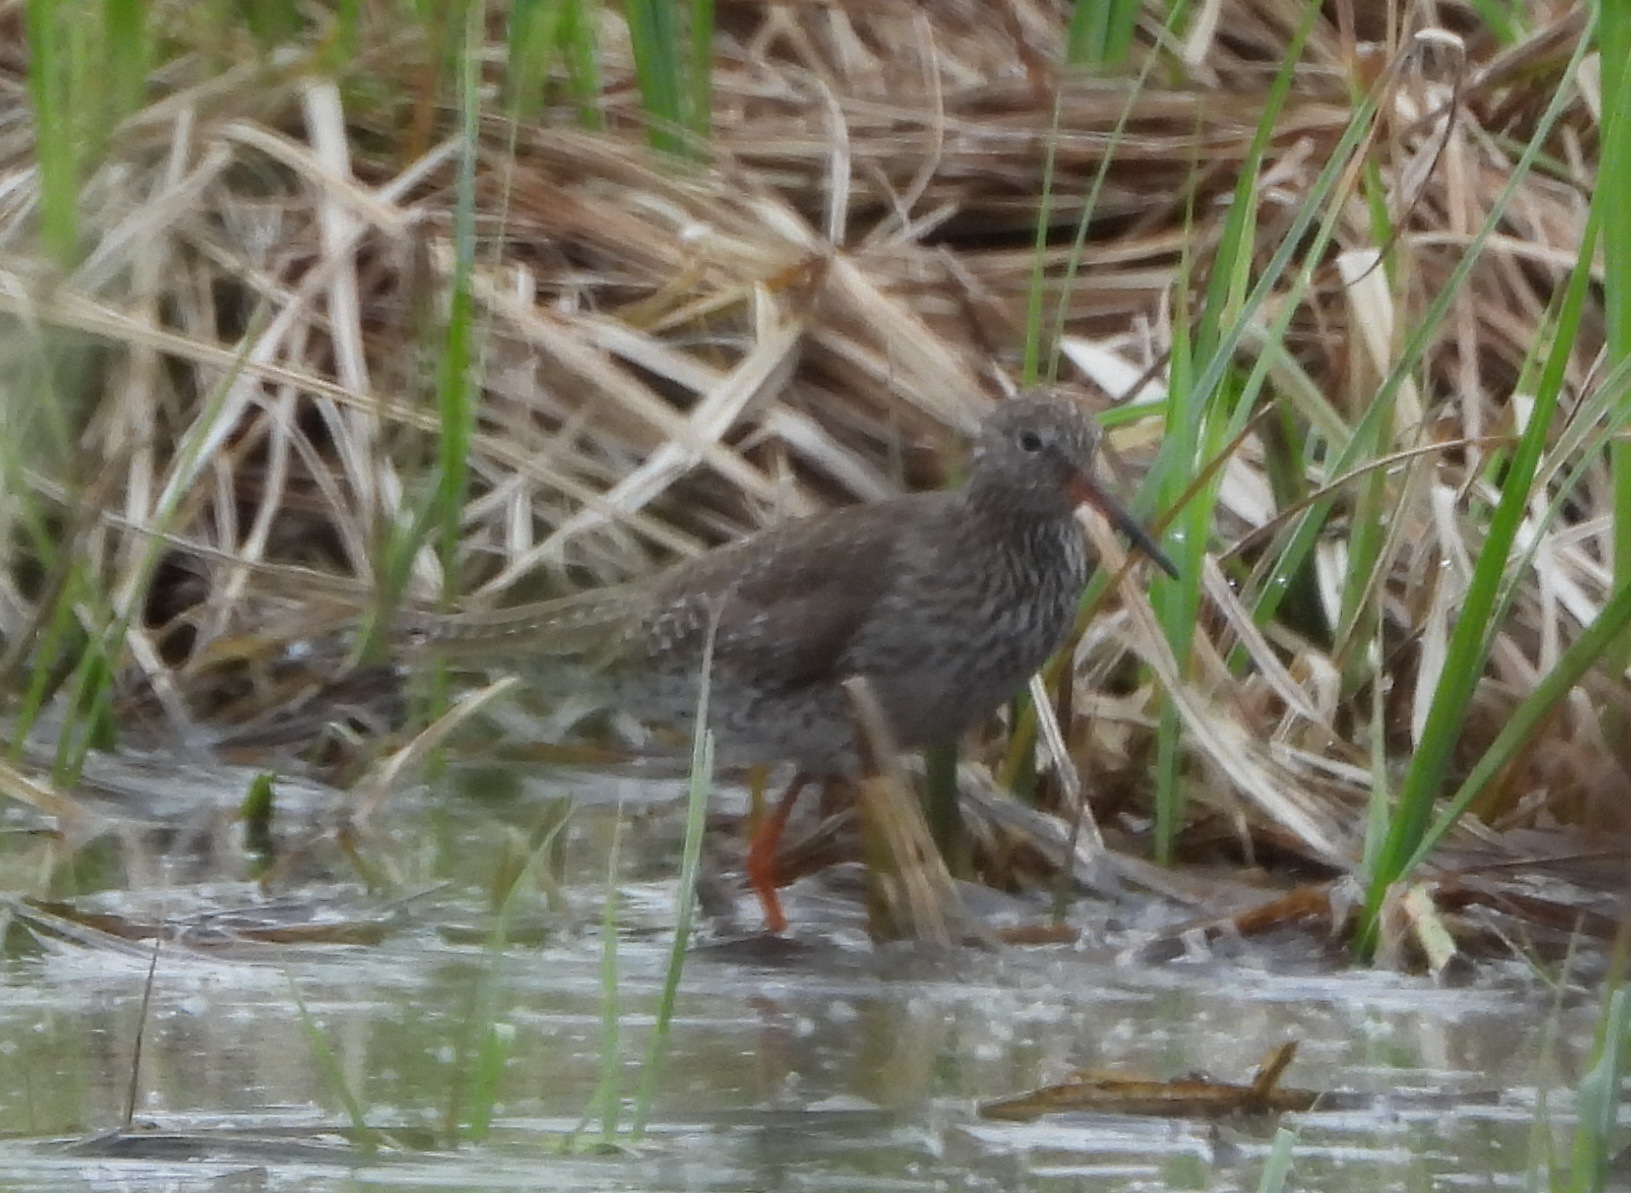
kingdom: Animalia
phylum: Chordata
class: Aves
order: Charadriiformes
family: Scolopacidae
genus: Tringa
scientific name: Tringa totanus
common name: Common redshank
